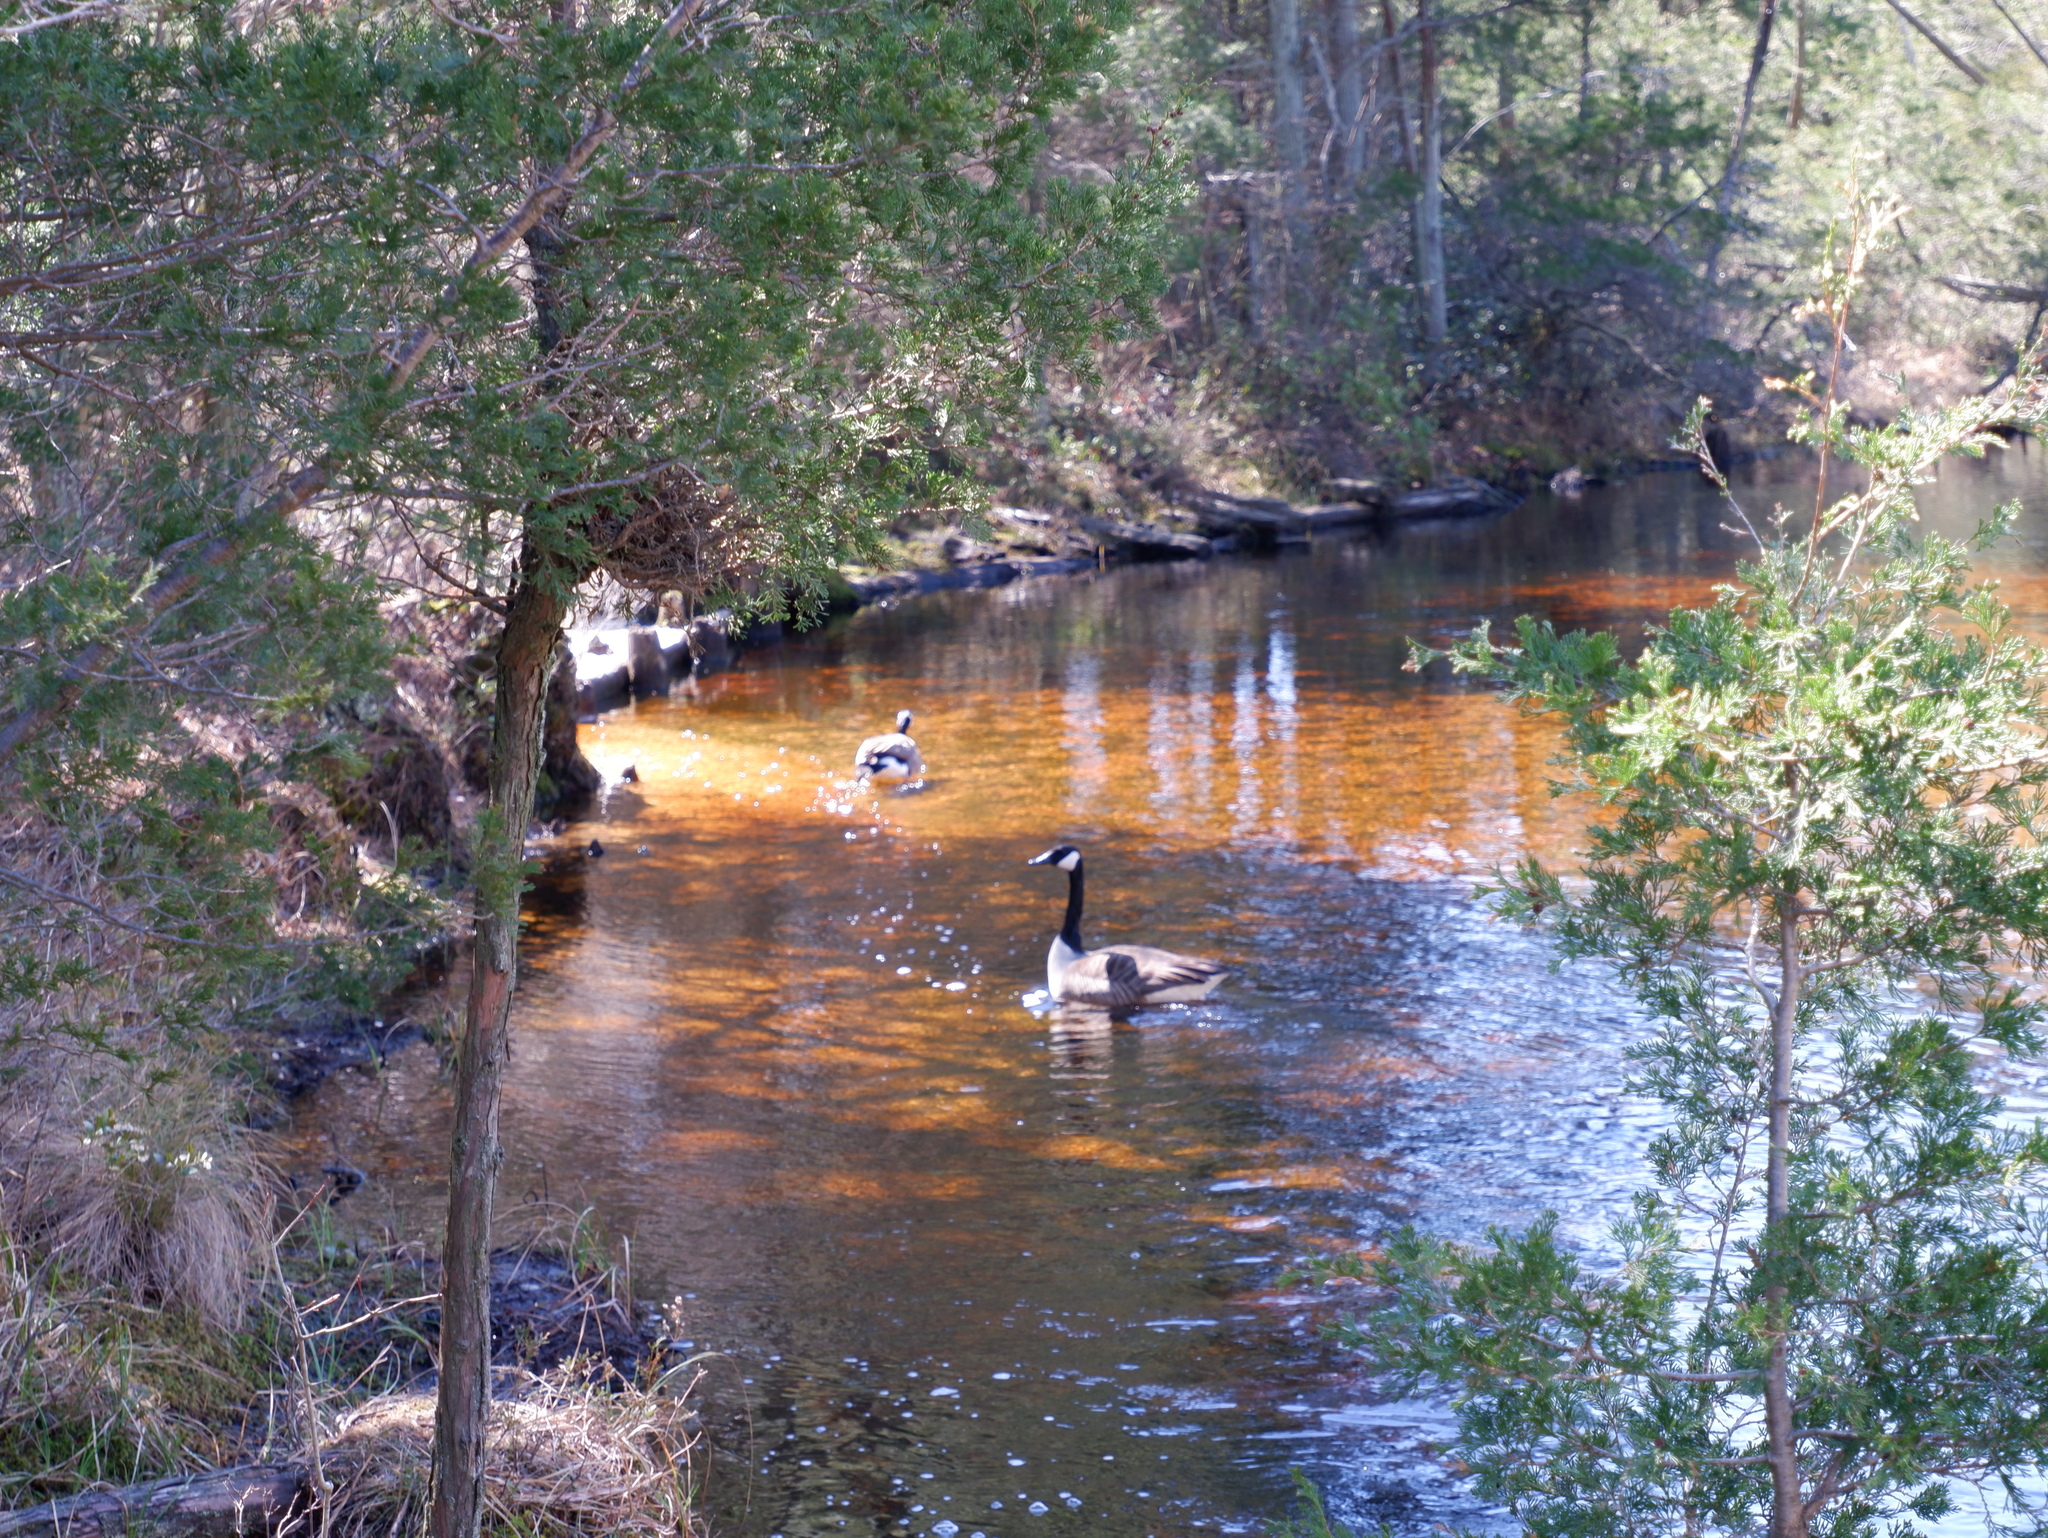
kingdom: Animalia
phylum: Chordata
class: Aves
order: Anseriformes
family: Anatidae
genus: Branta
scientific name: Branta canadensis
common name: Canada goose
